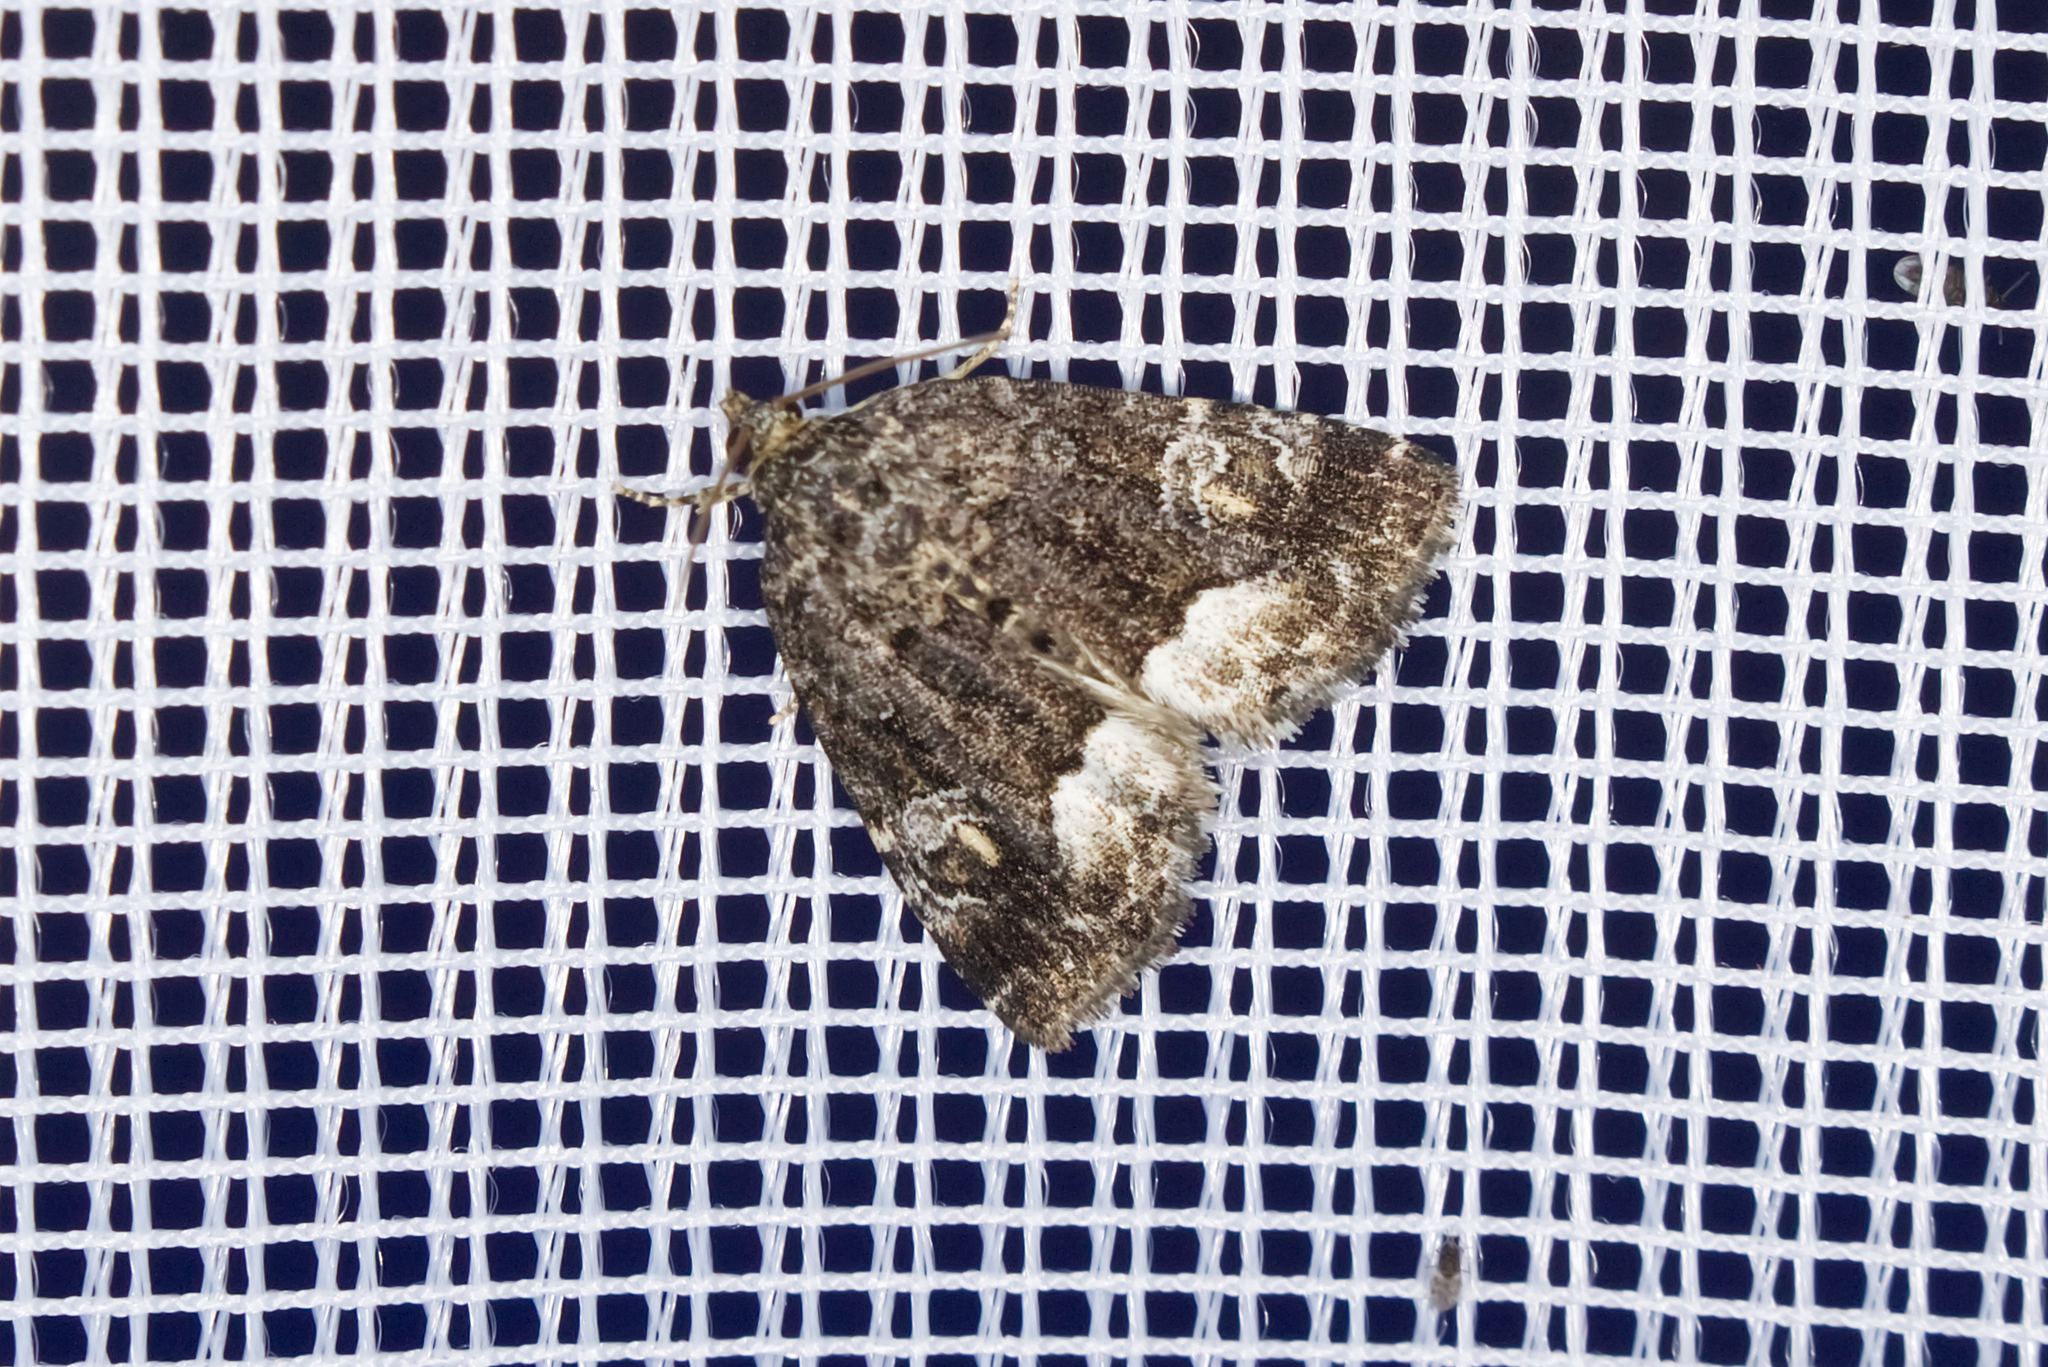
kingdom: Animalia
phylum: Arthropoda
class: Insecta
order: Lepidoptera
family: Noctuidae
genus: Deltote
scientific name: Deltote pygarga
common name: Marbled white spot
